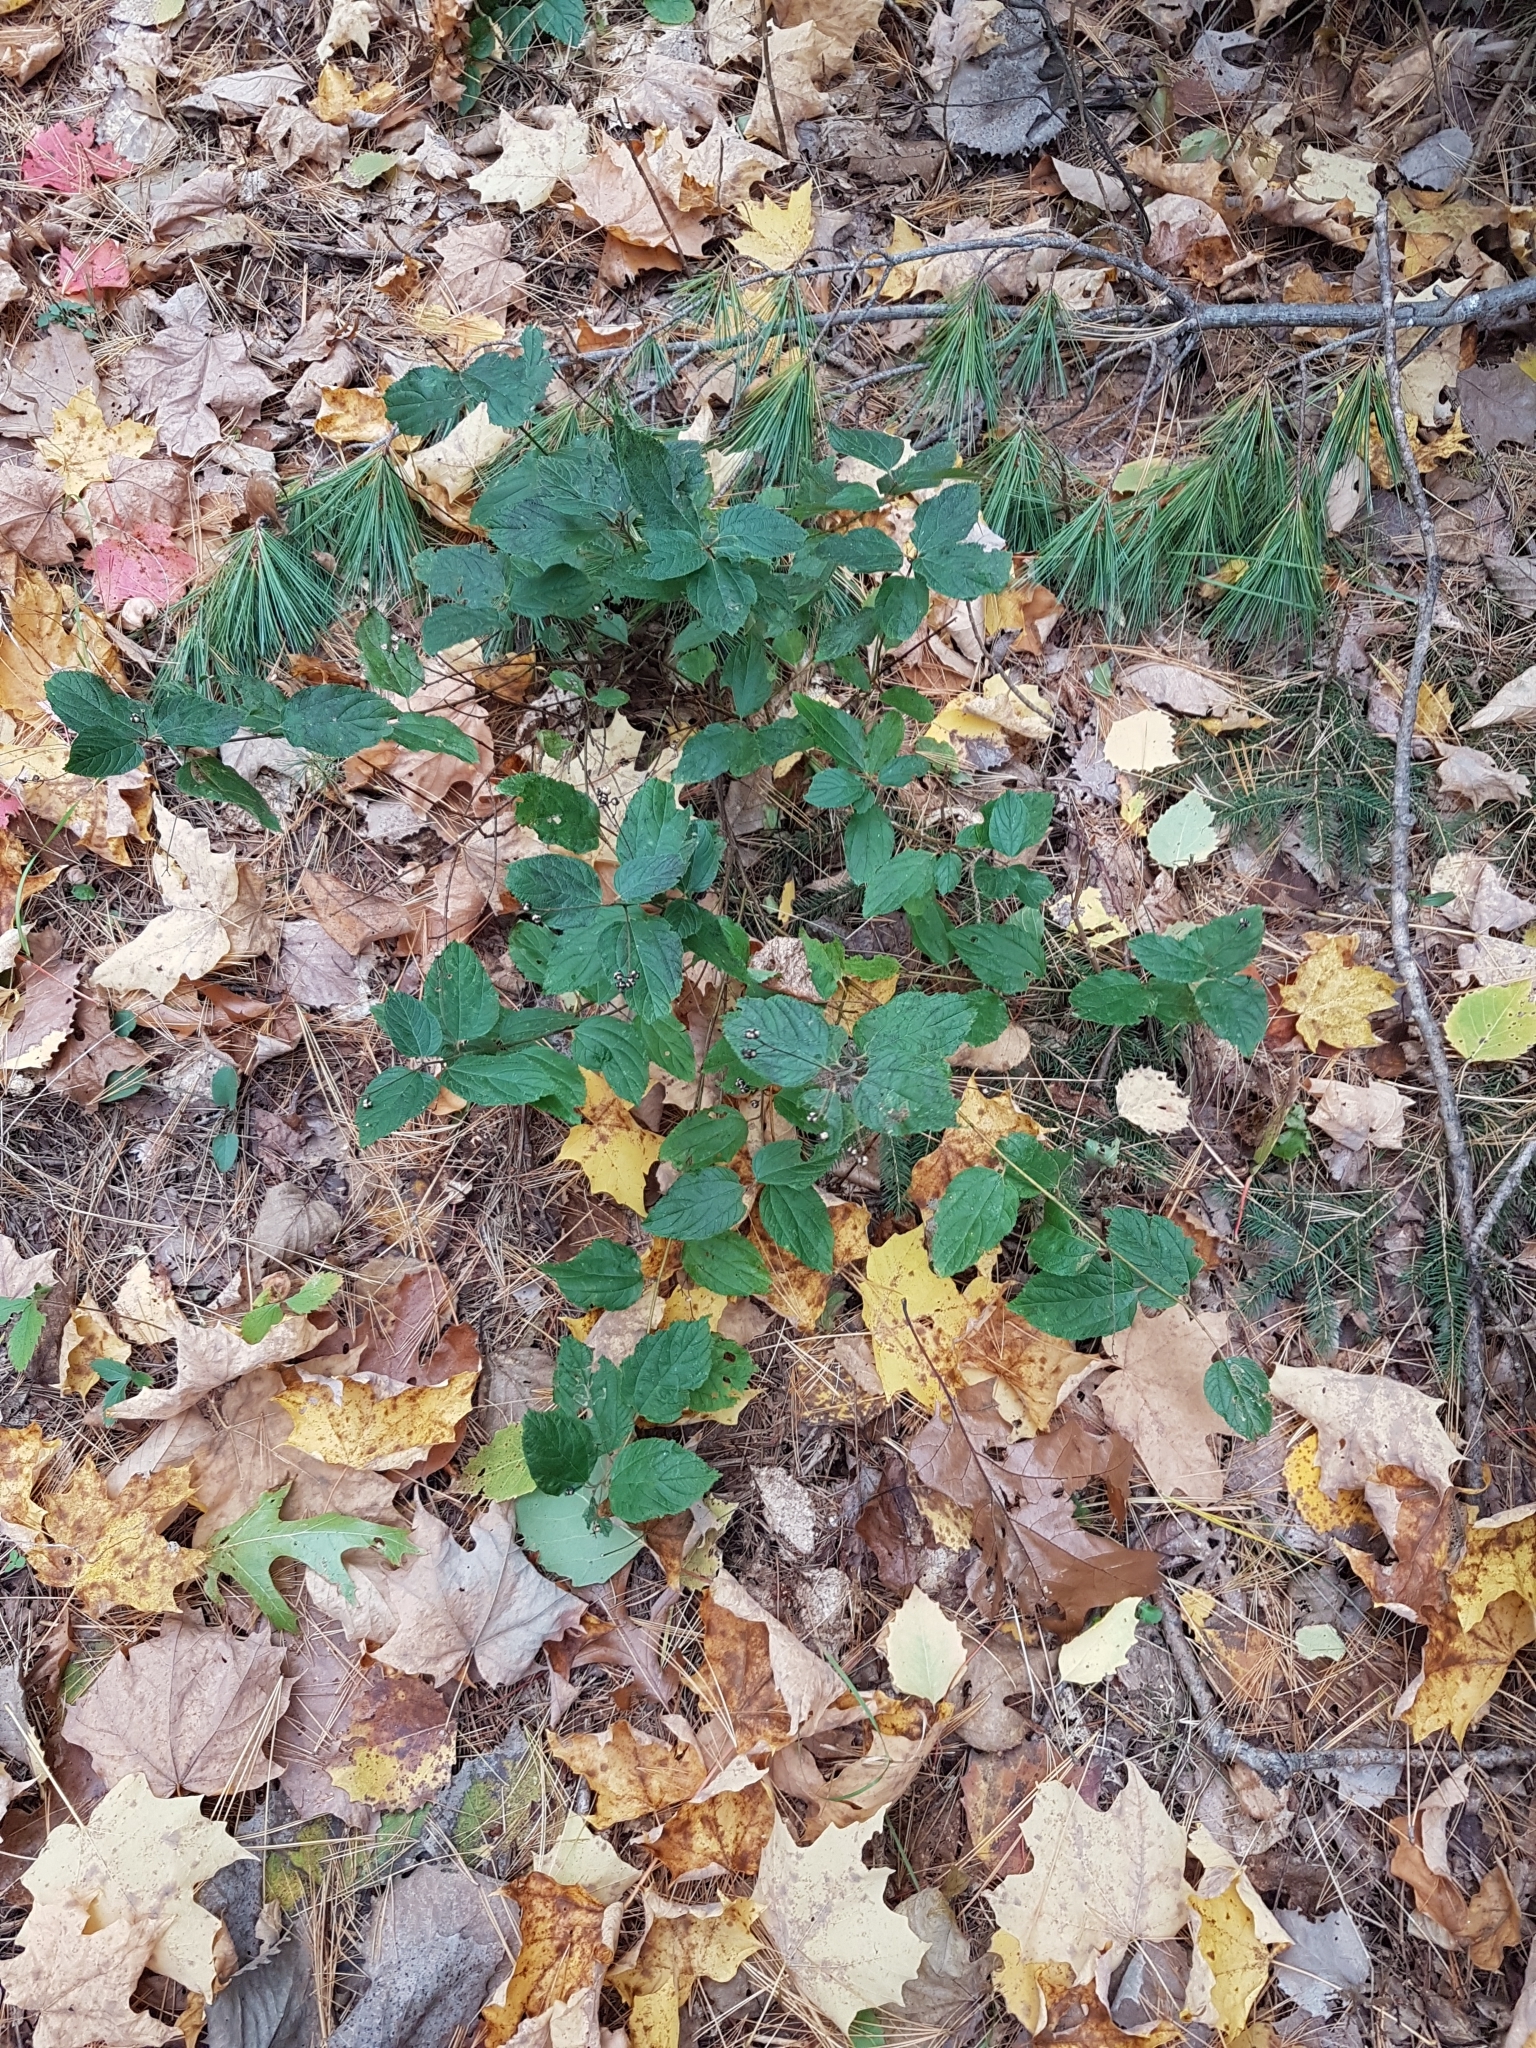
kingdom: Plantae
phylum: Tracheophyta
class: Magnoliopsida
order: Rosales
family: Rhamnaceae
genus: Ceanothus
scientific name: Ceanothus americanus
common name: Redroot
